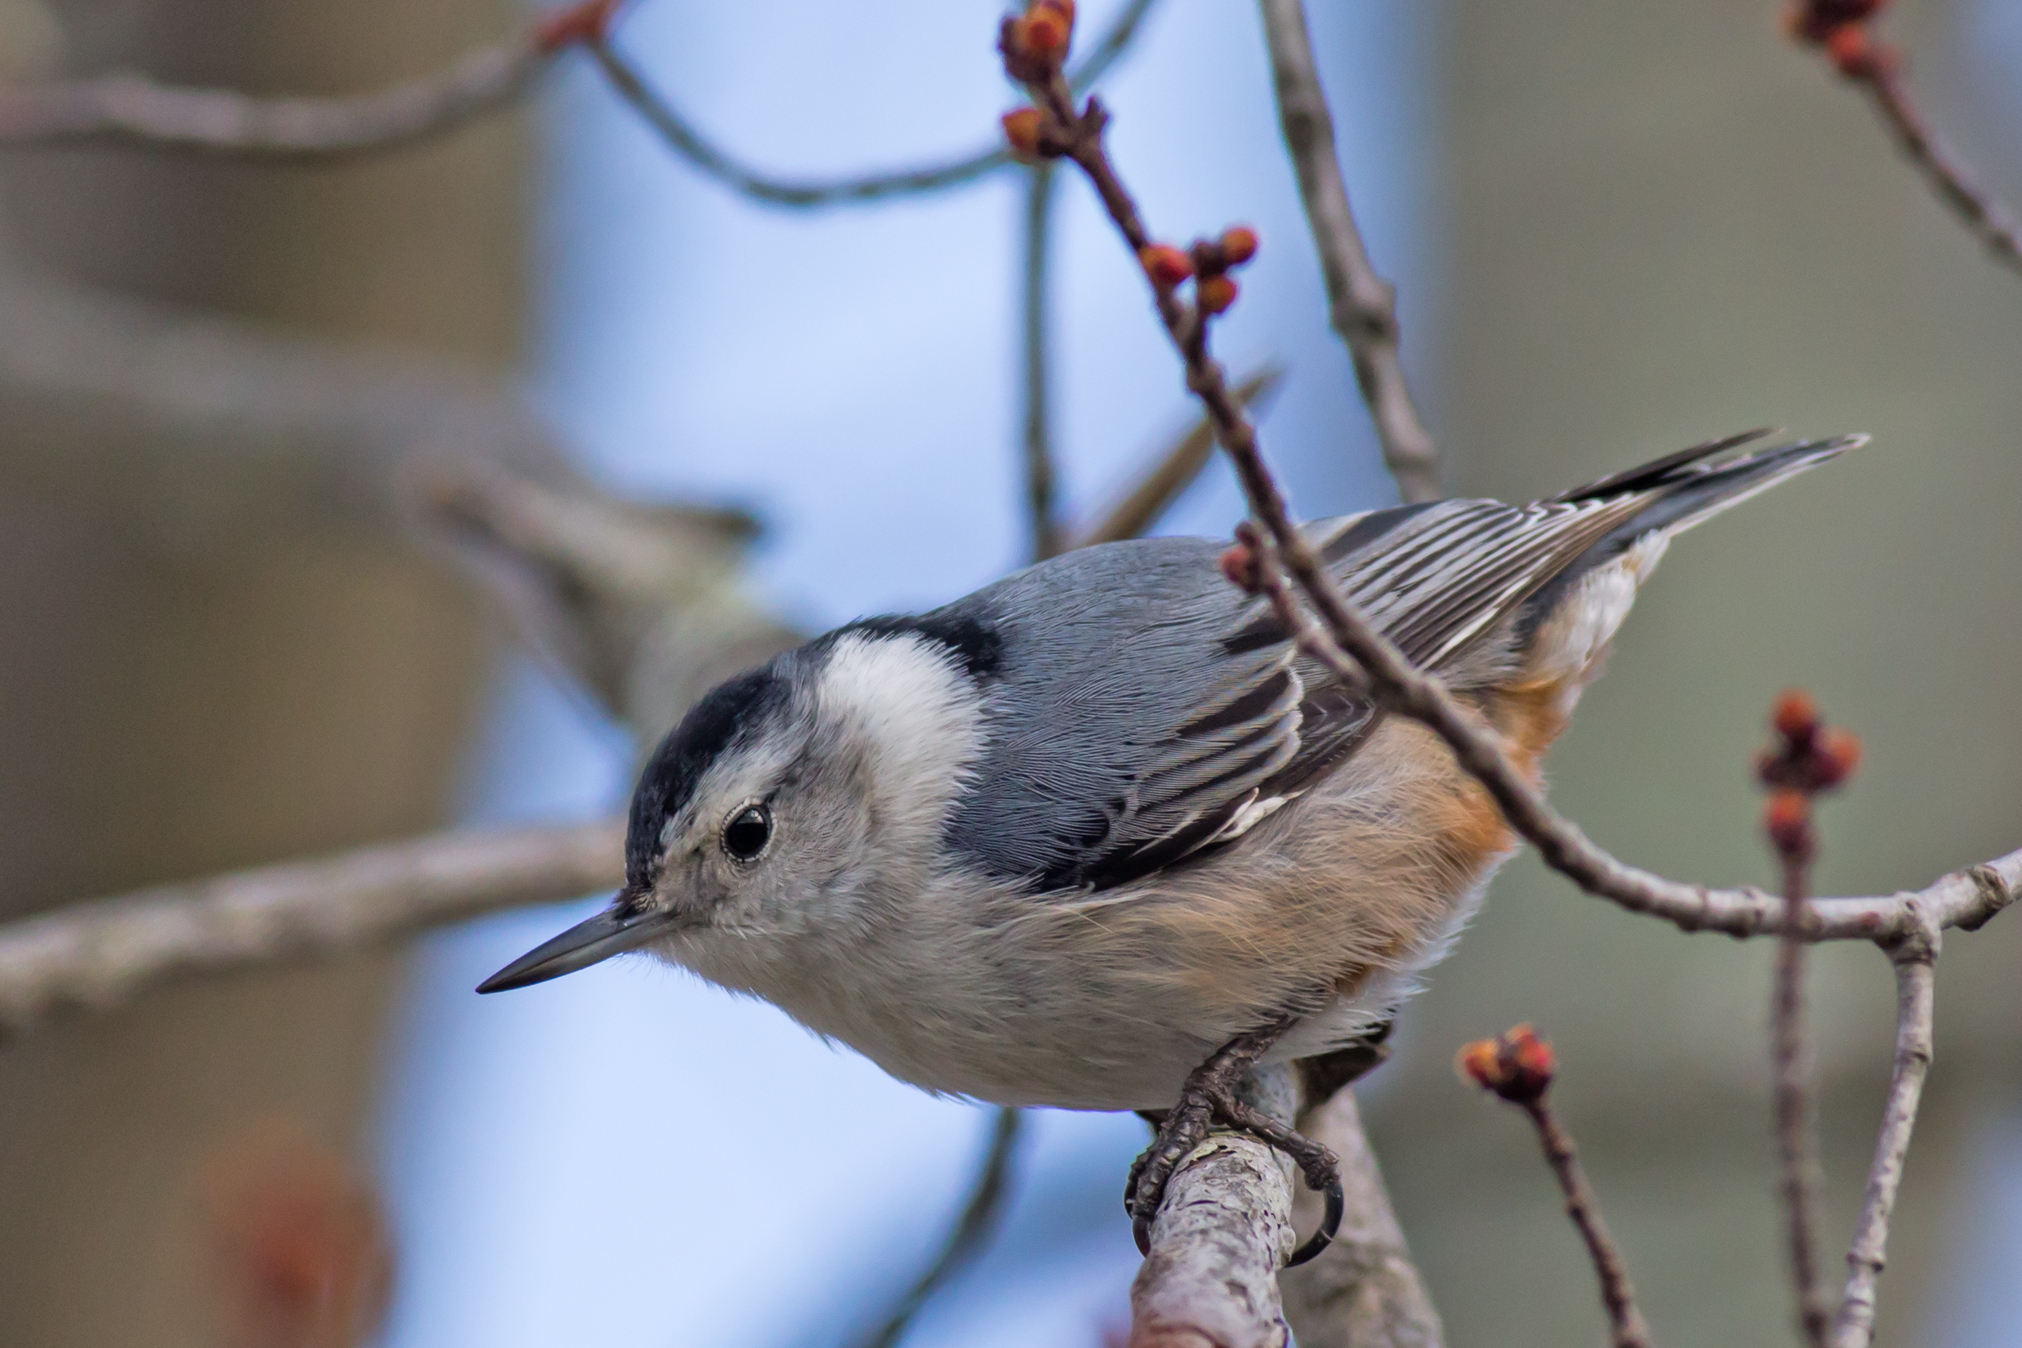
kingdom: Animalia
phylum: Chordata
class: Aves
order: Passeriformes
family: Sittidae
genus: Sitta
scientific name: Sitta carolinensis
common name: White-breasted nuthatch
